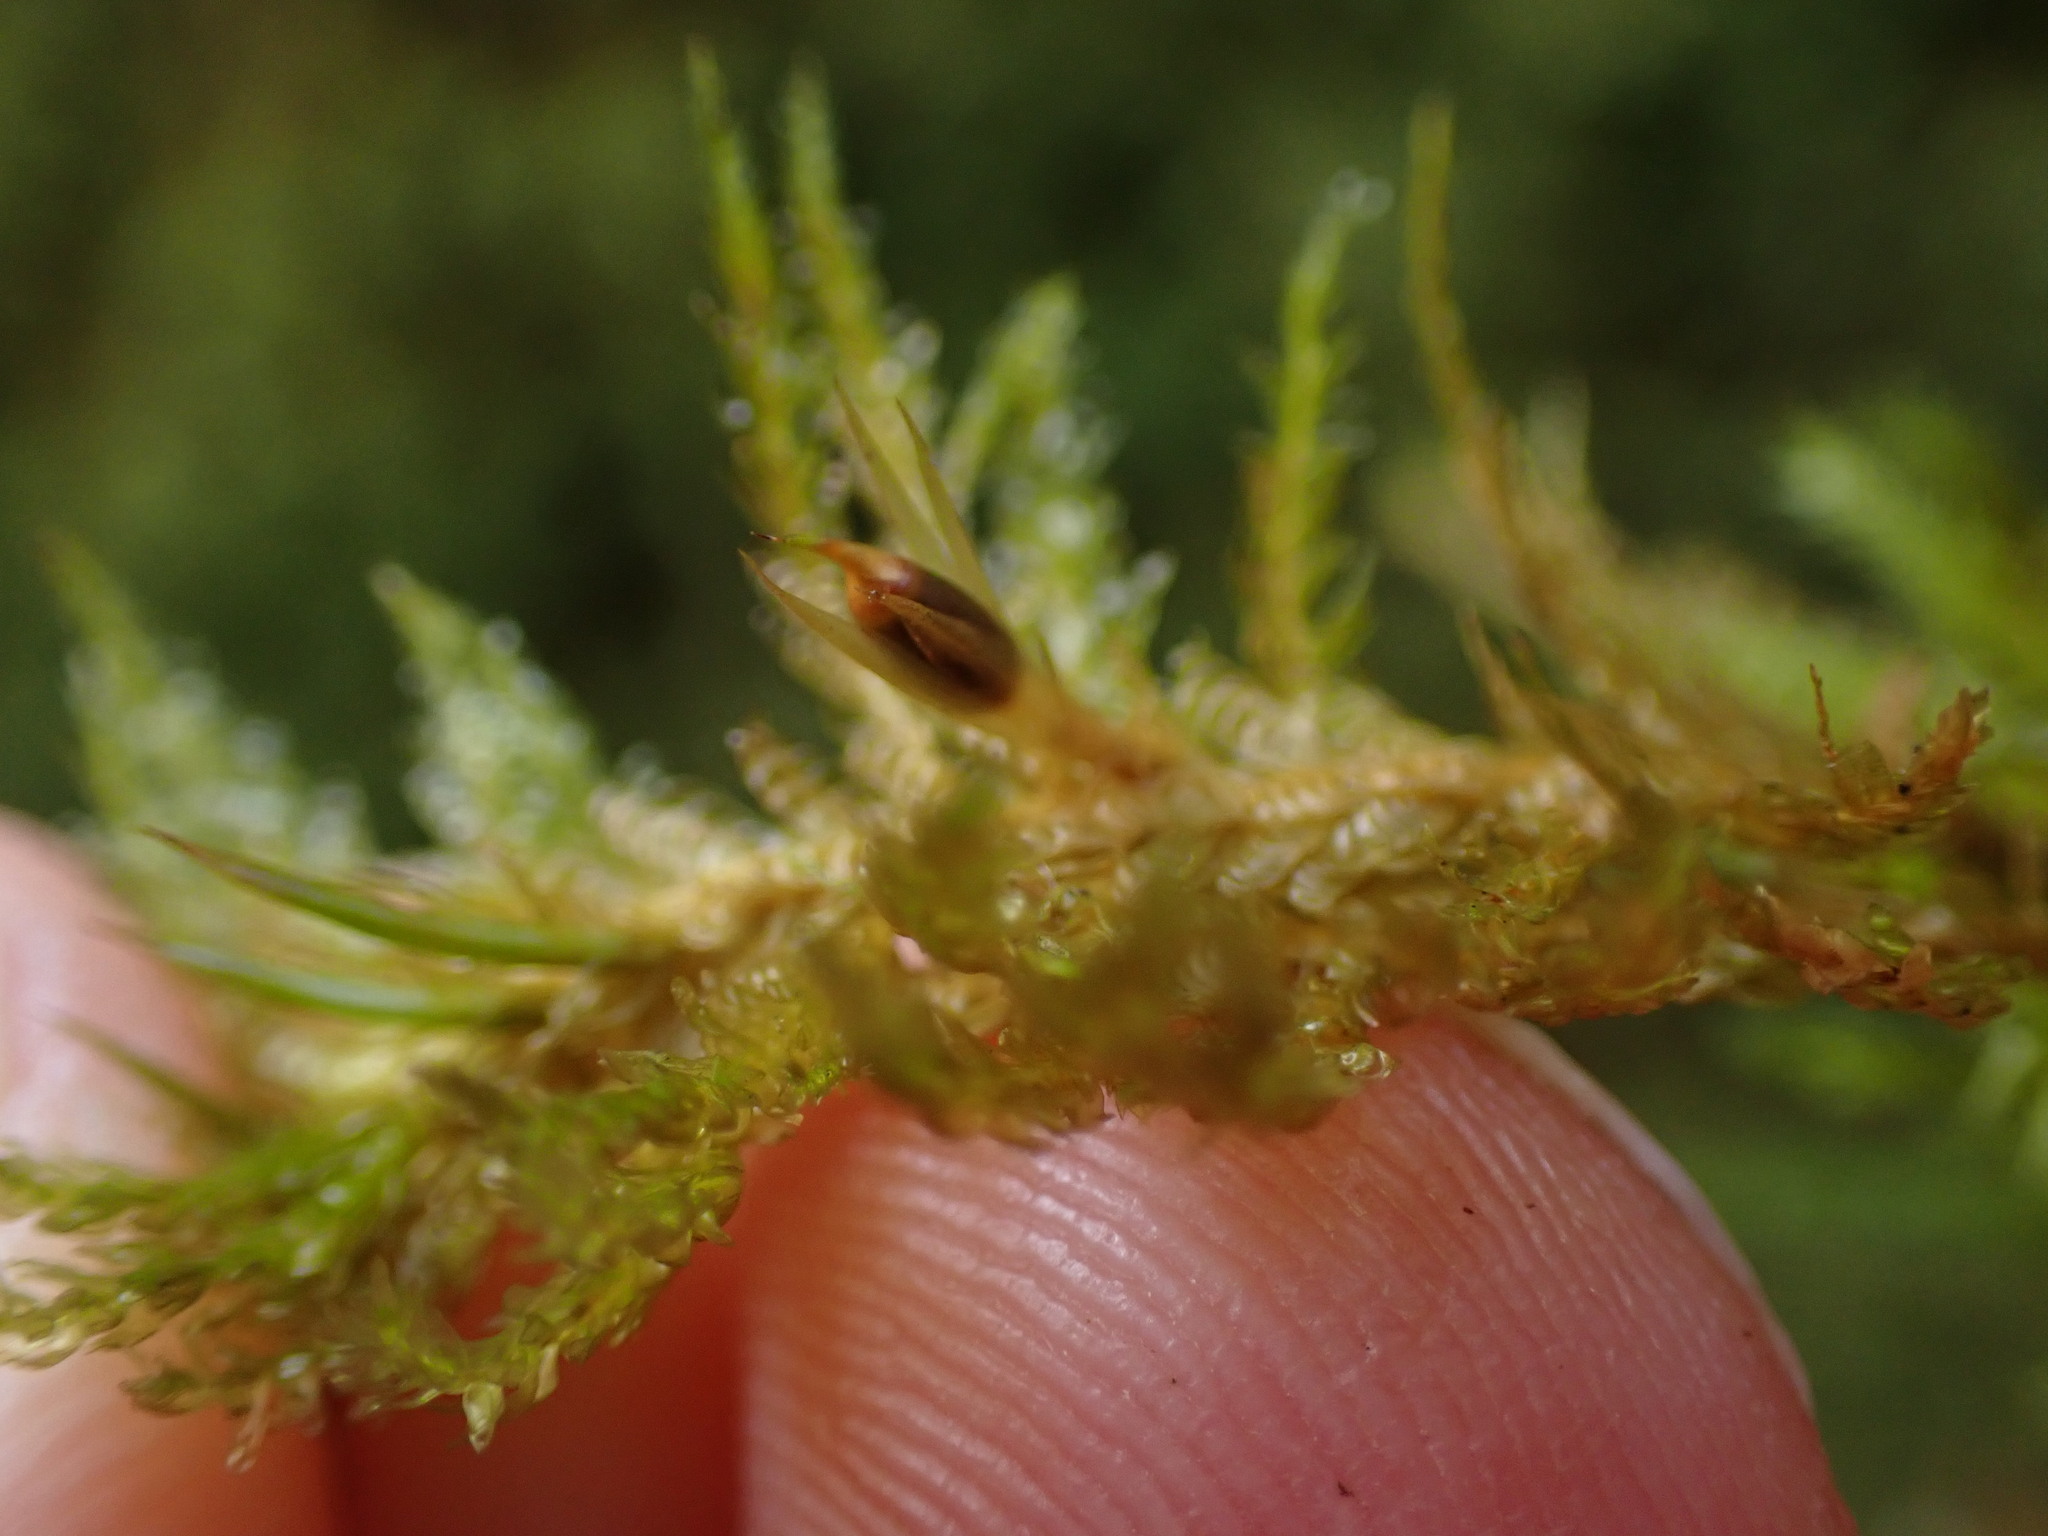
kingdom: Plantae
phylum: Bryophyta
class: Bryopsida
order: Hypnales
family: Neckeraceae
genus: Metaneckera
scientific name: Metaneckera menziesii
